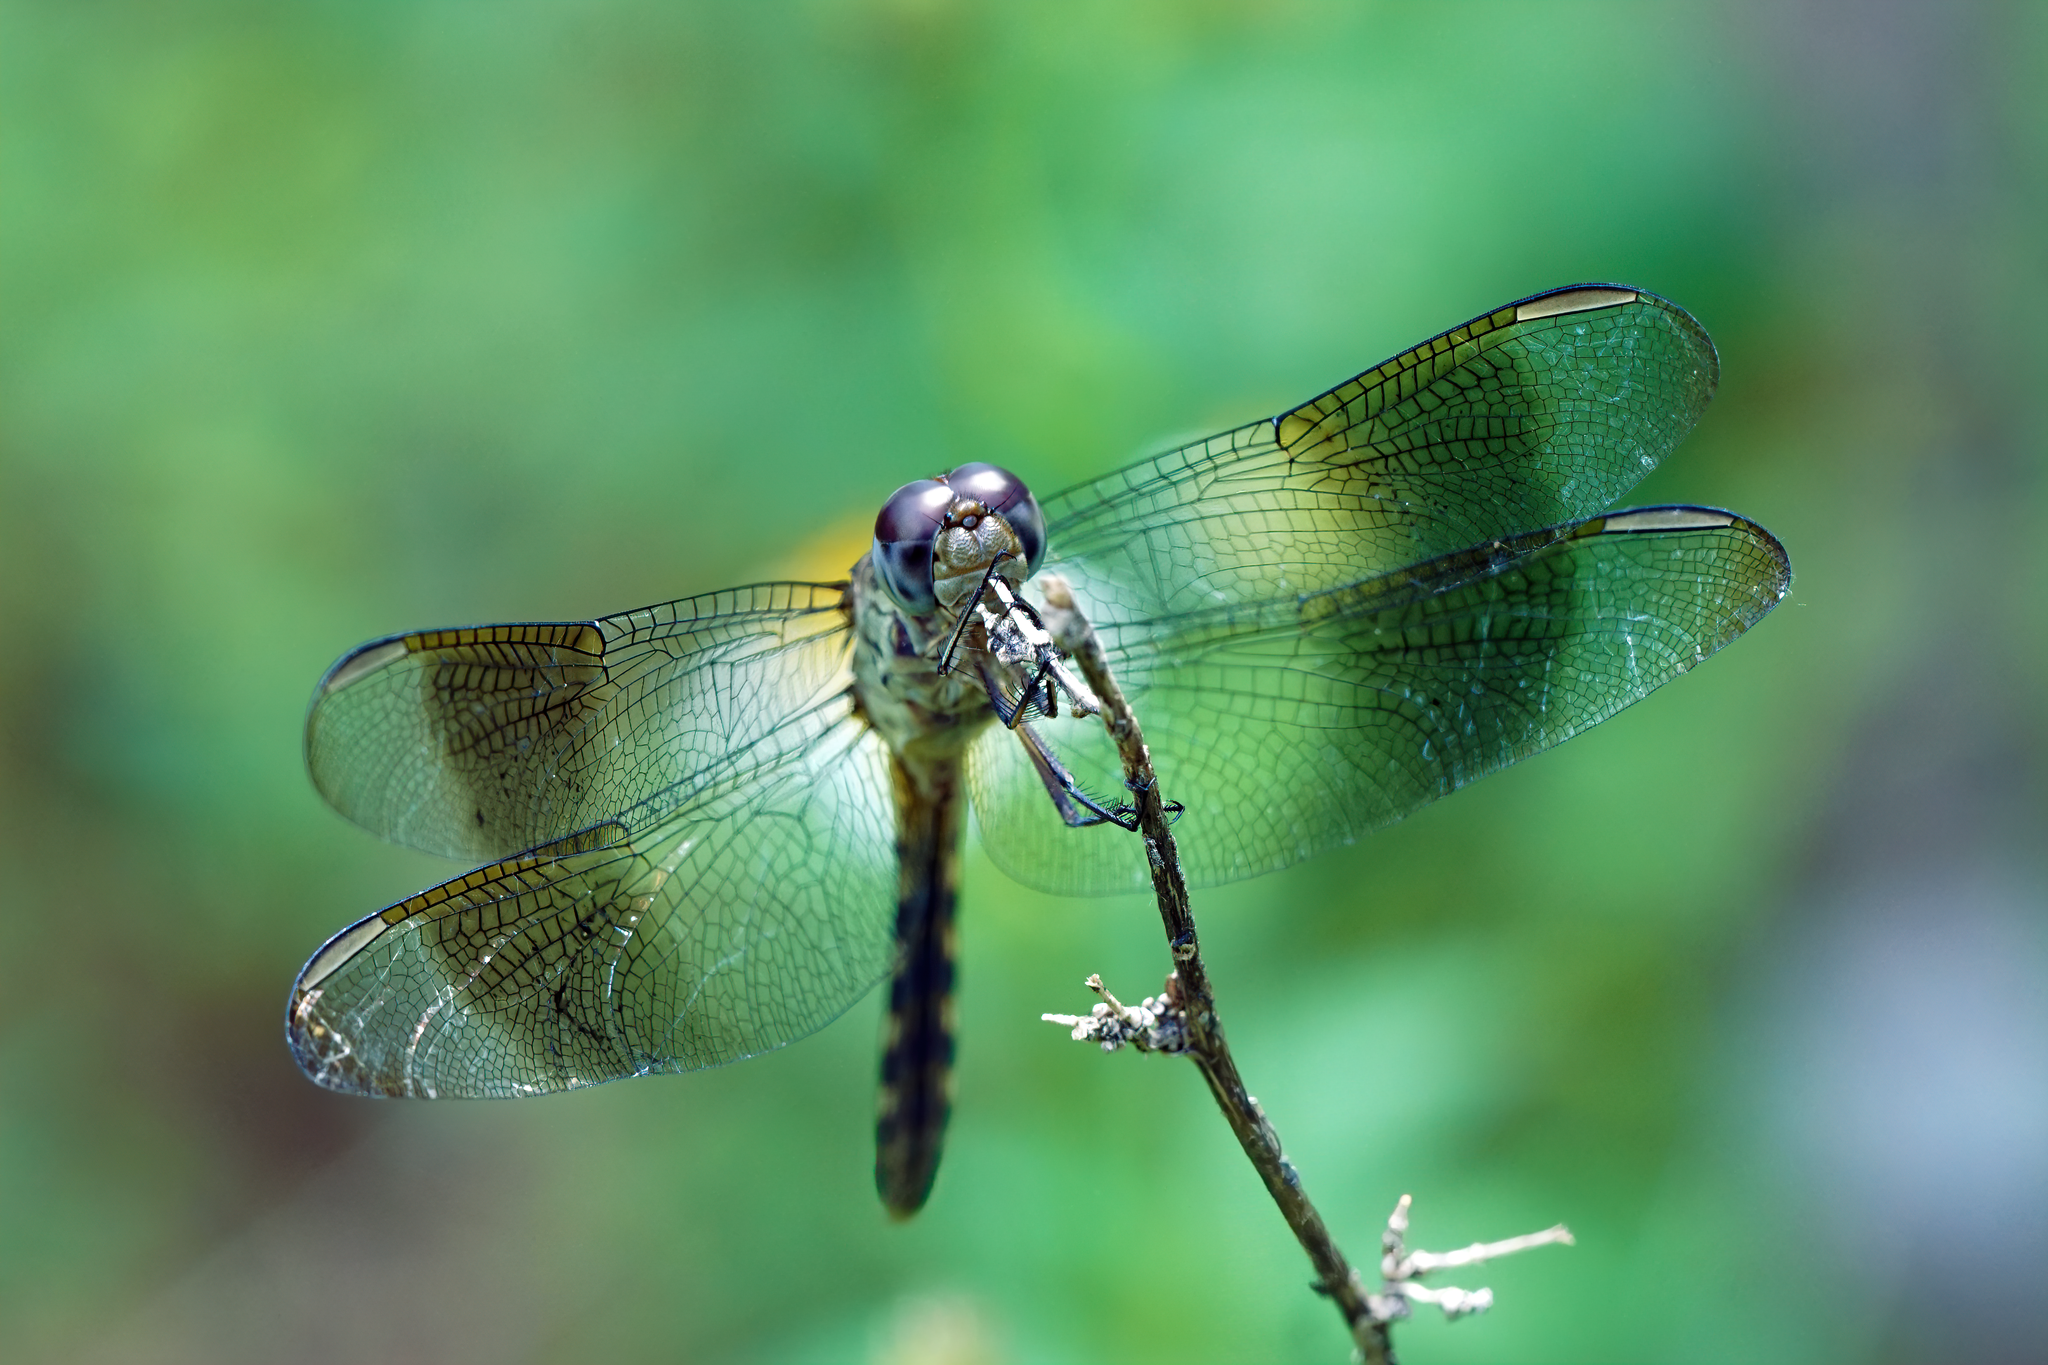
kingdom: Animalia
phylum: Arthropoda
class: Insecta
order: Odonata
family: Libellulidae
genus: Erythrodiplax
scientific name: Erythrodiplax umbrata
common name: Band-winged dragonlet
